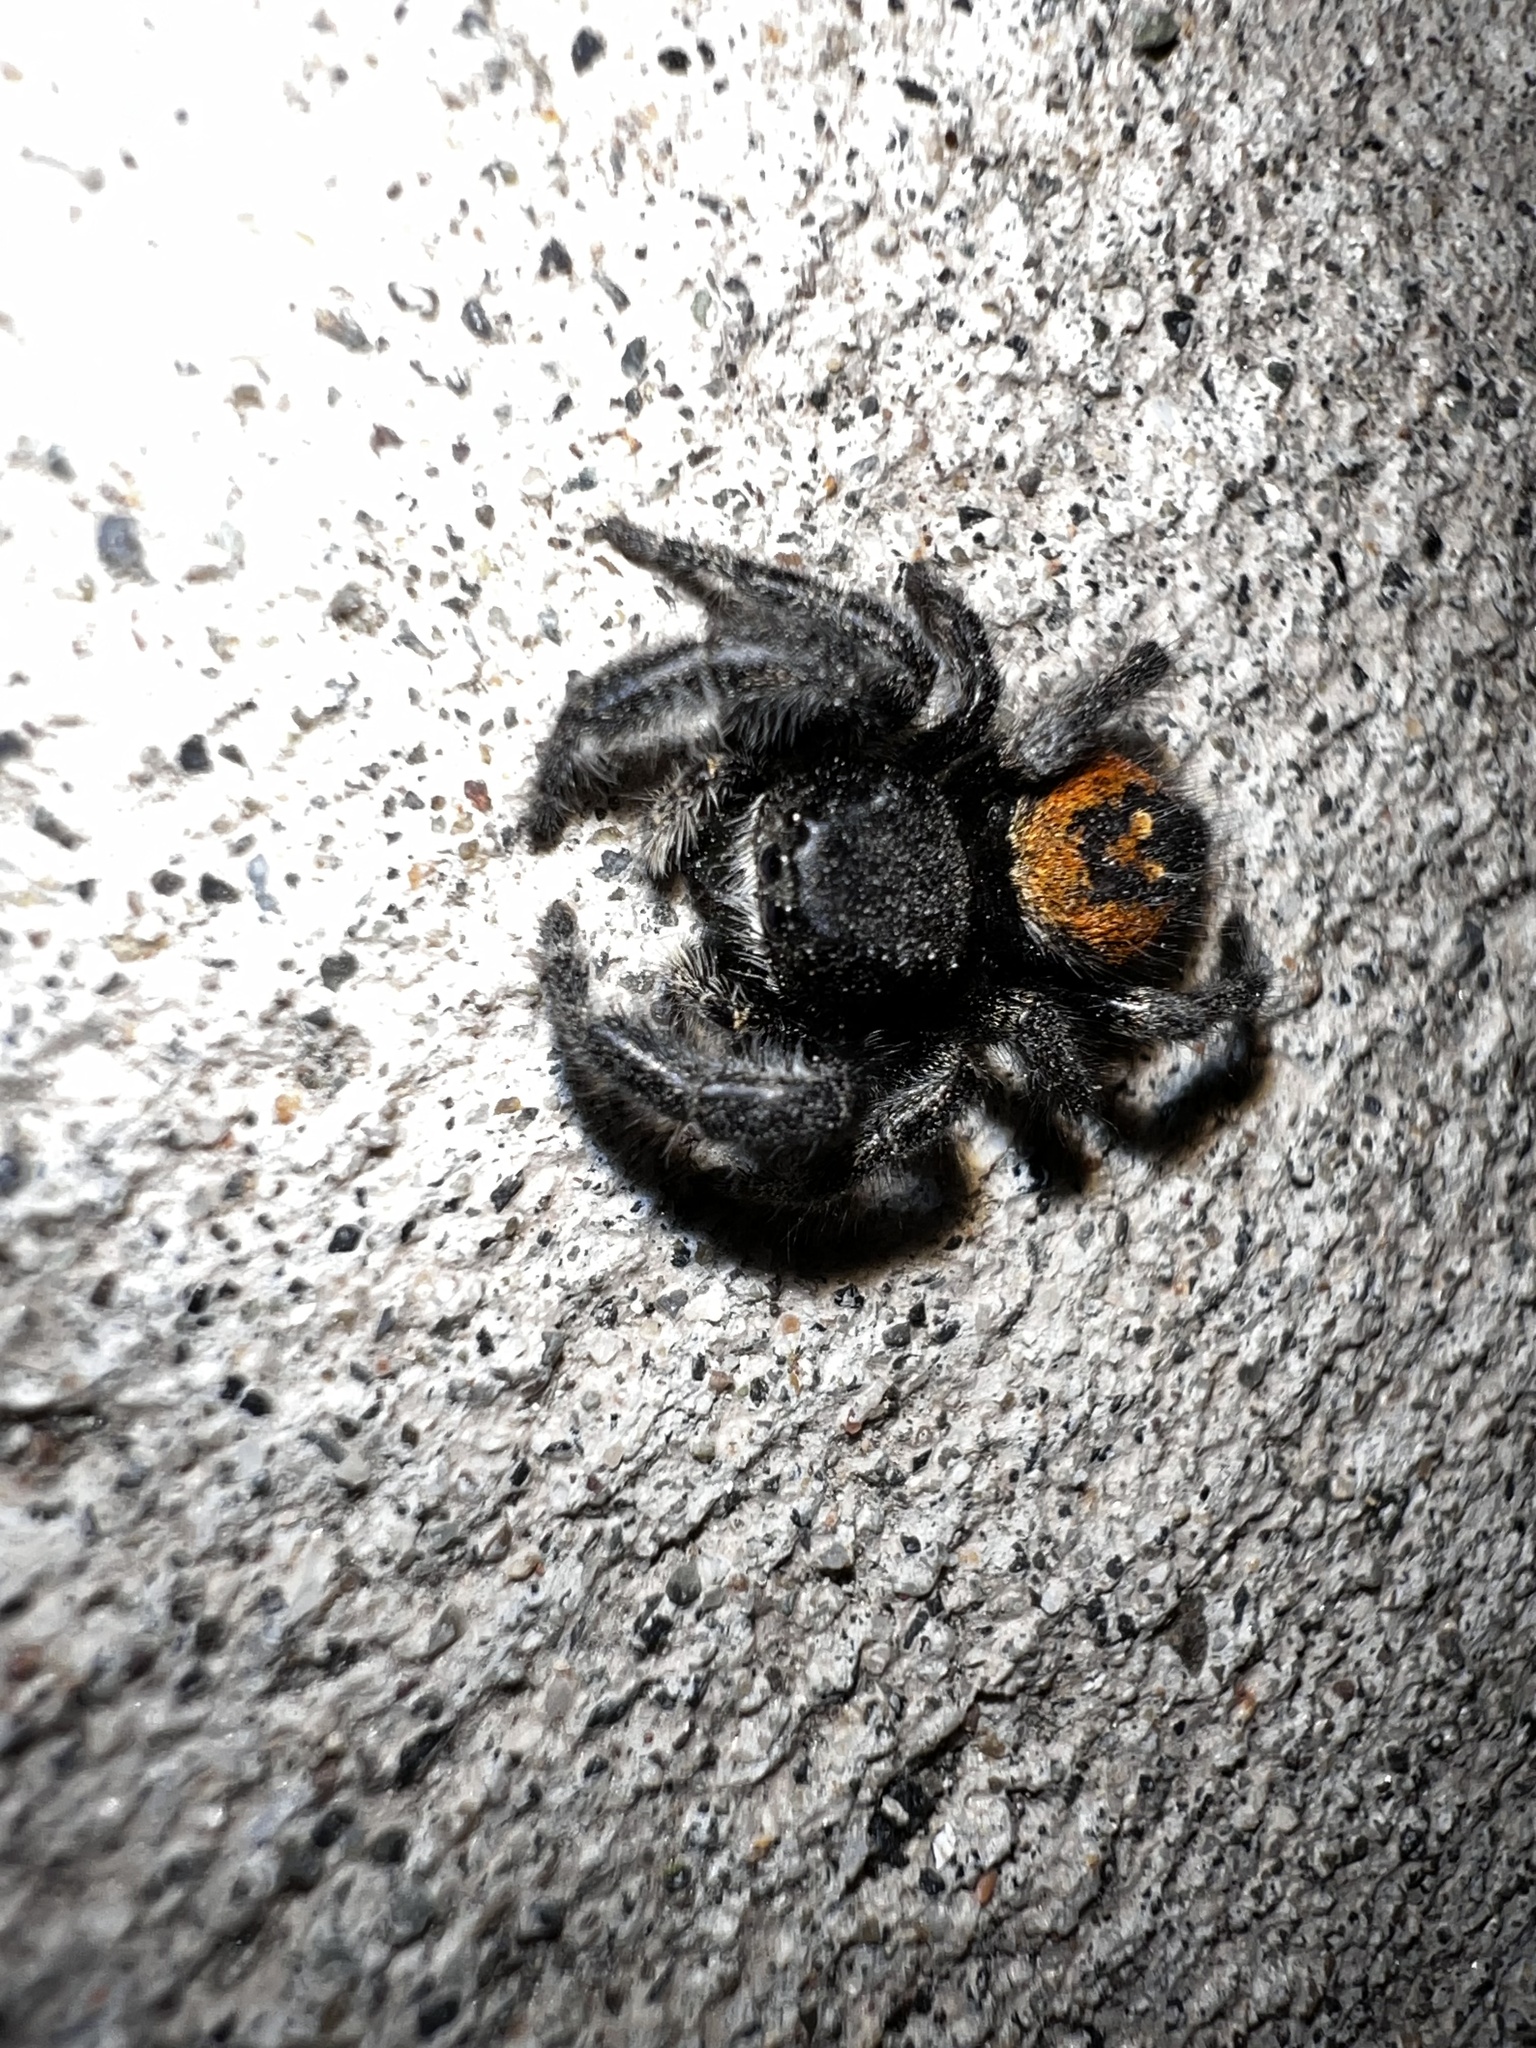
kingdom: Animalia
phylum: Arthropoda
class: Arachnida
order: Araneae
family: Salticidae
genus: Phidippus
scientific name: Phidippus johnsoni
